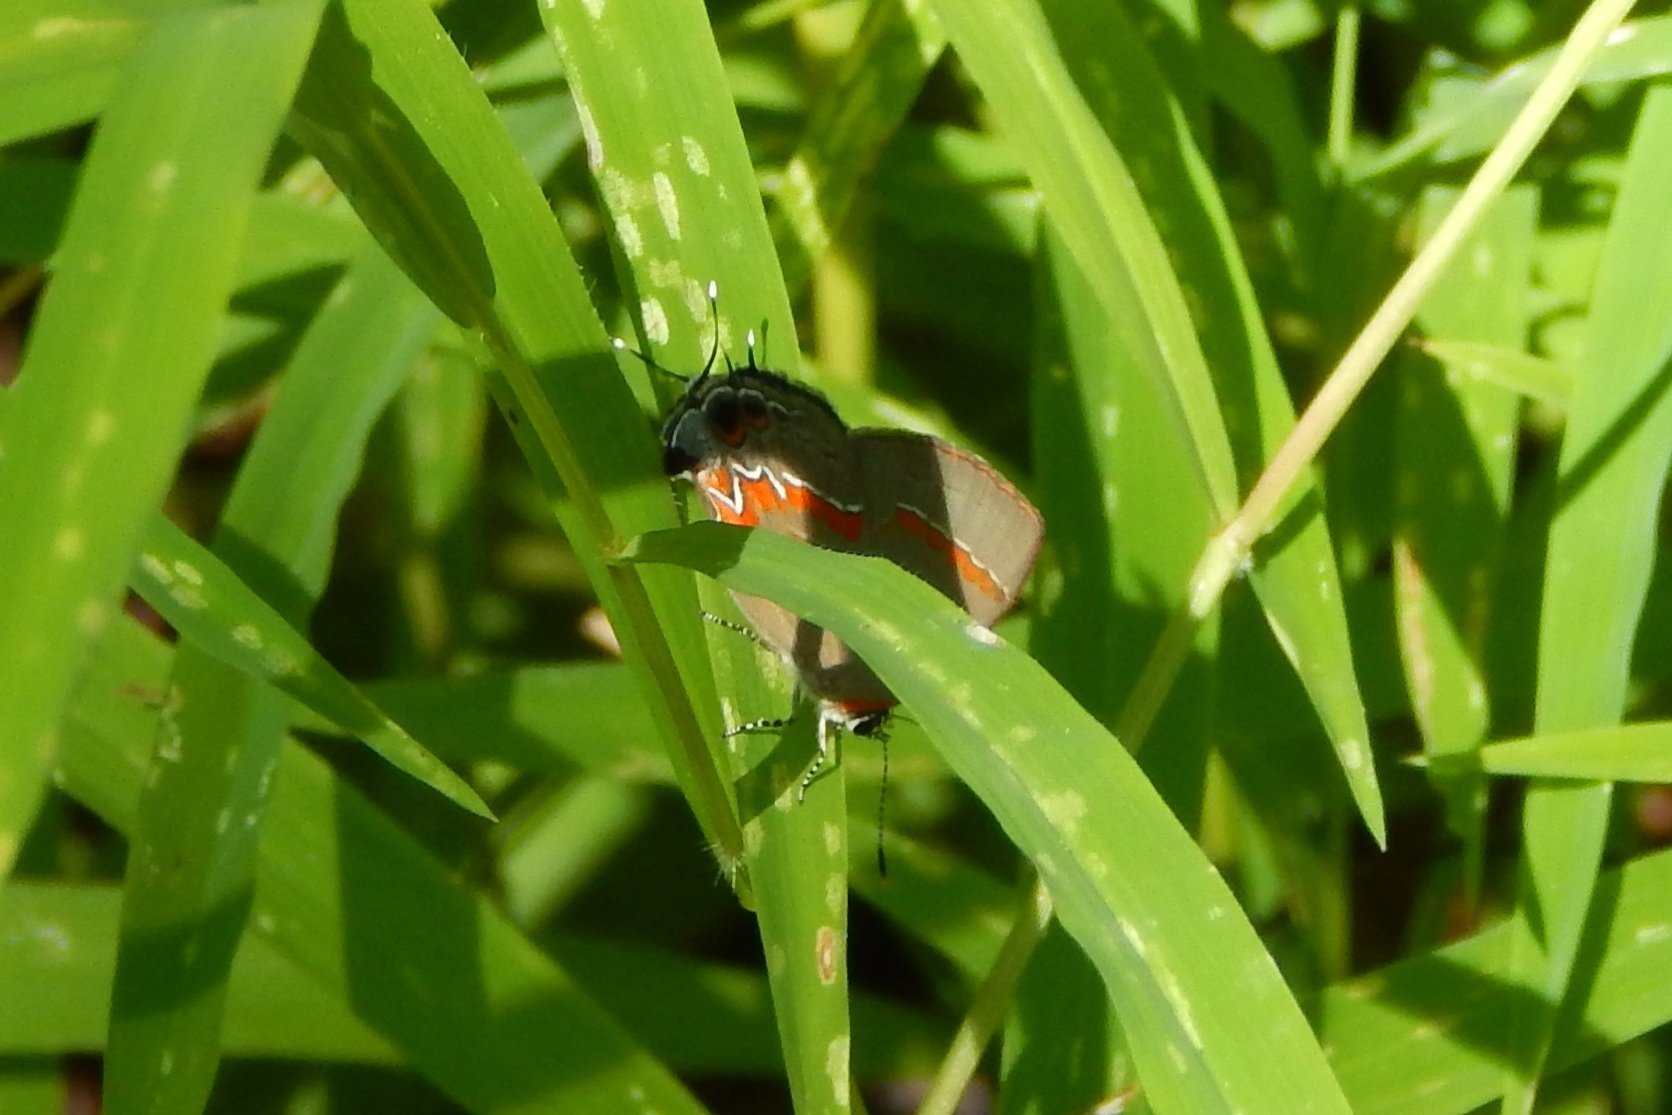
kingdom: Animalia
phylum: Arthropoda
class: Insecta
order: Lepidoptera
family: Lycaenidae
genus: Calycopis
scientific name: Calycopis cecrops
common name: Red-banded hairstreak
